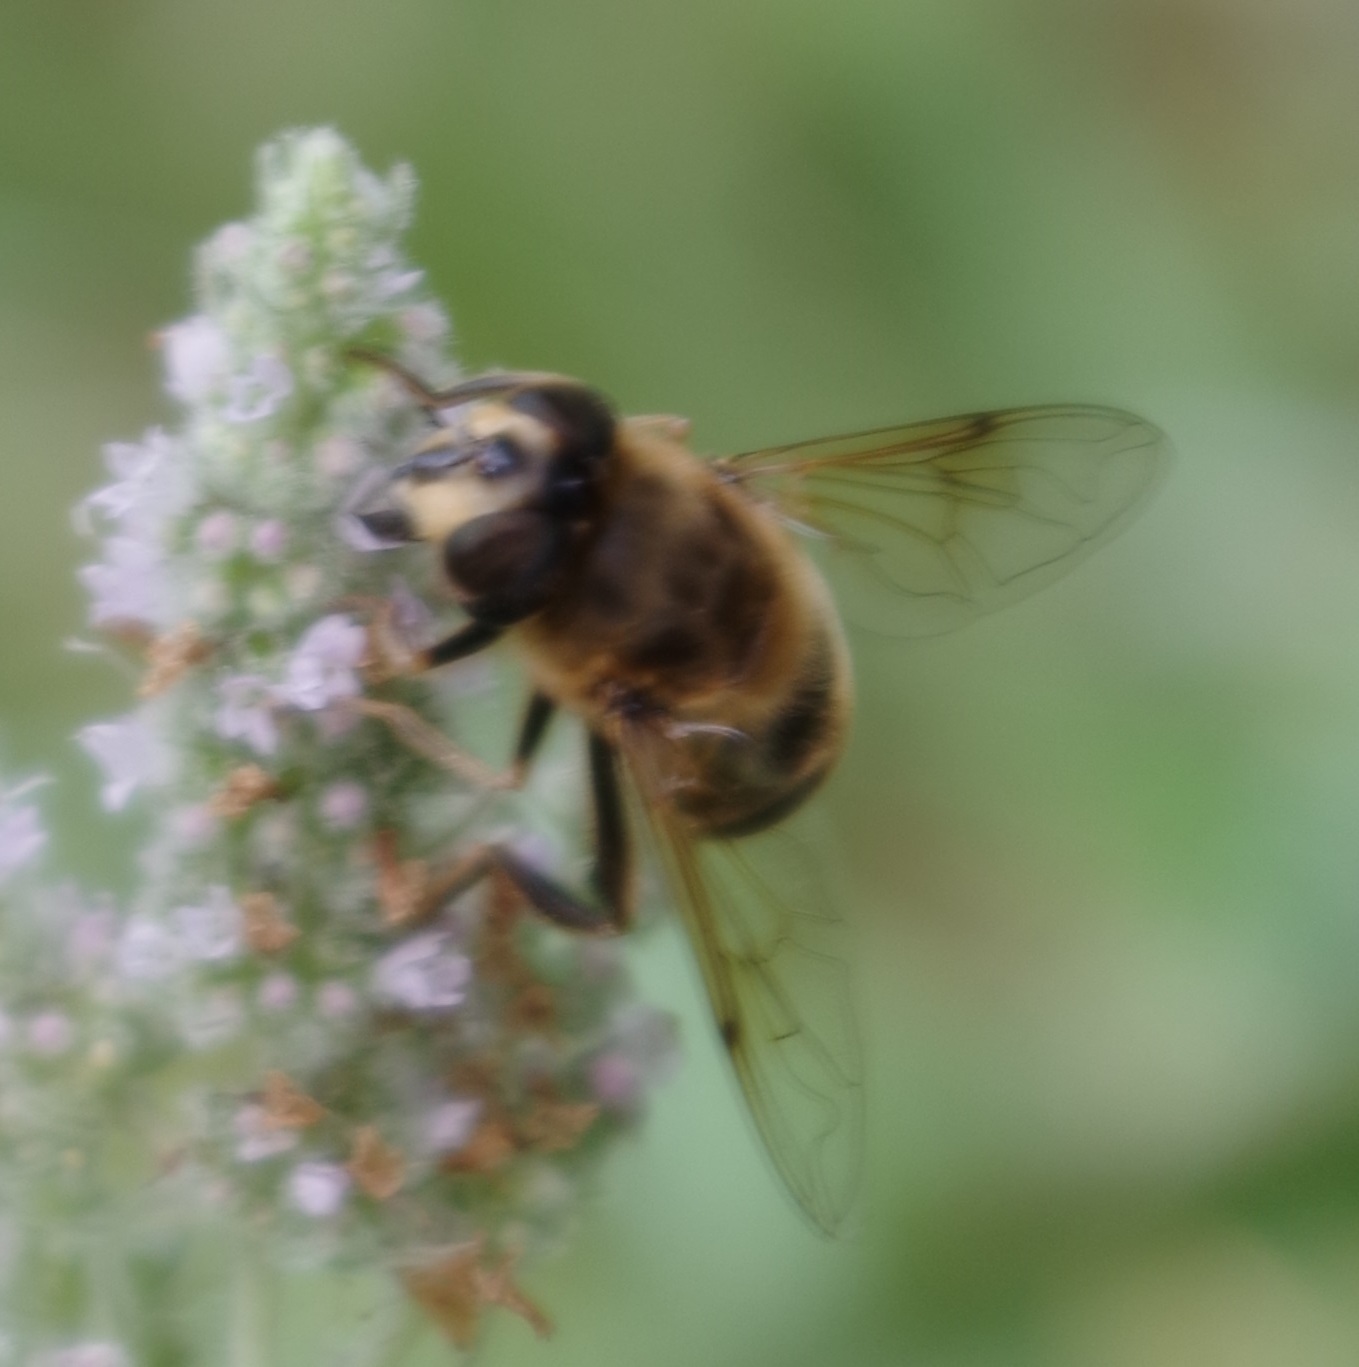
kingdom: Animalia
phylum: Arthropoda
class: Insecta
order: Diptera
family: Syrphidae
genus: Eristalis
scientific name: Eristalis tenax
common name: Drone fly
